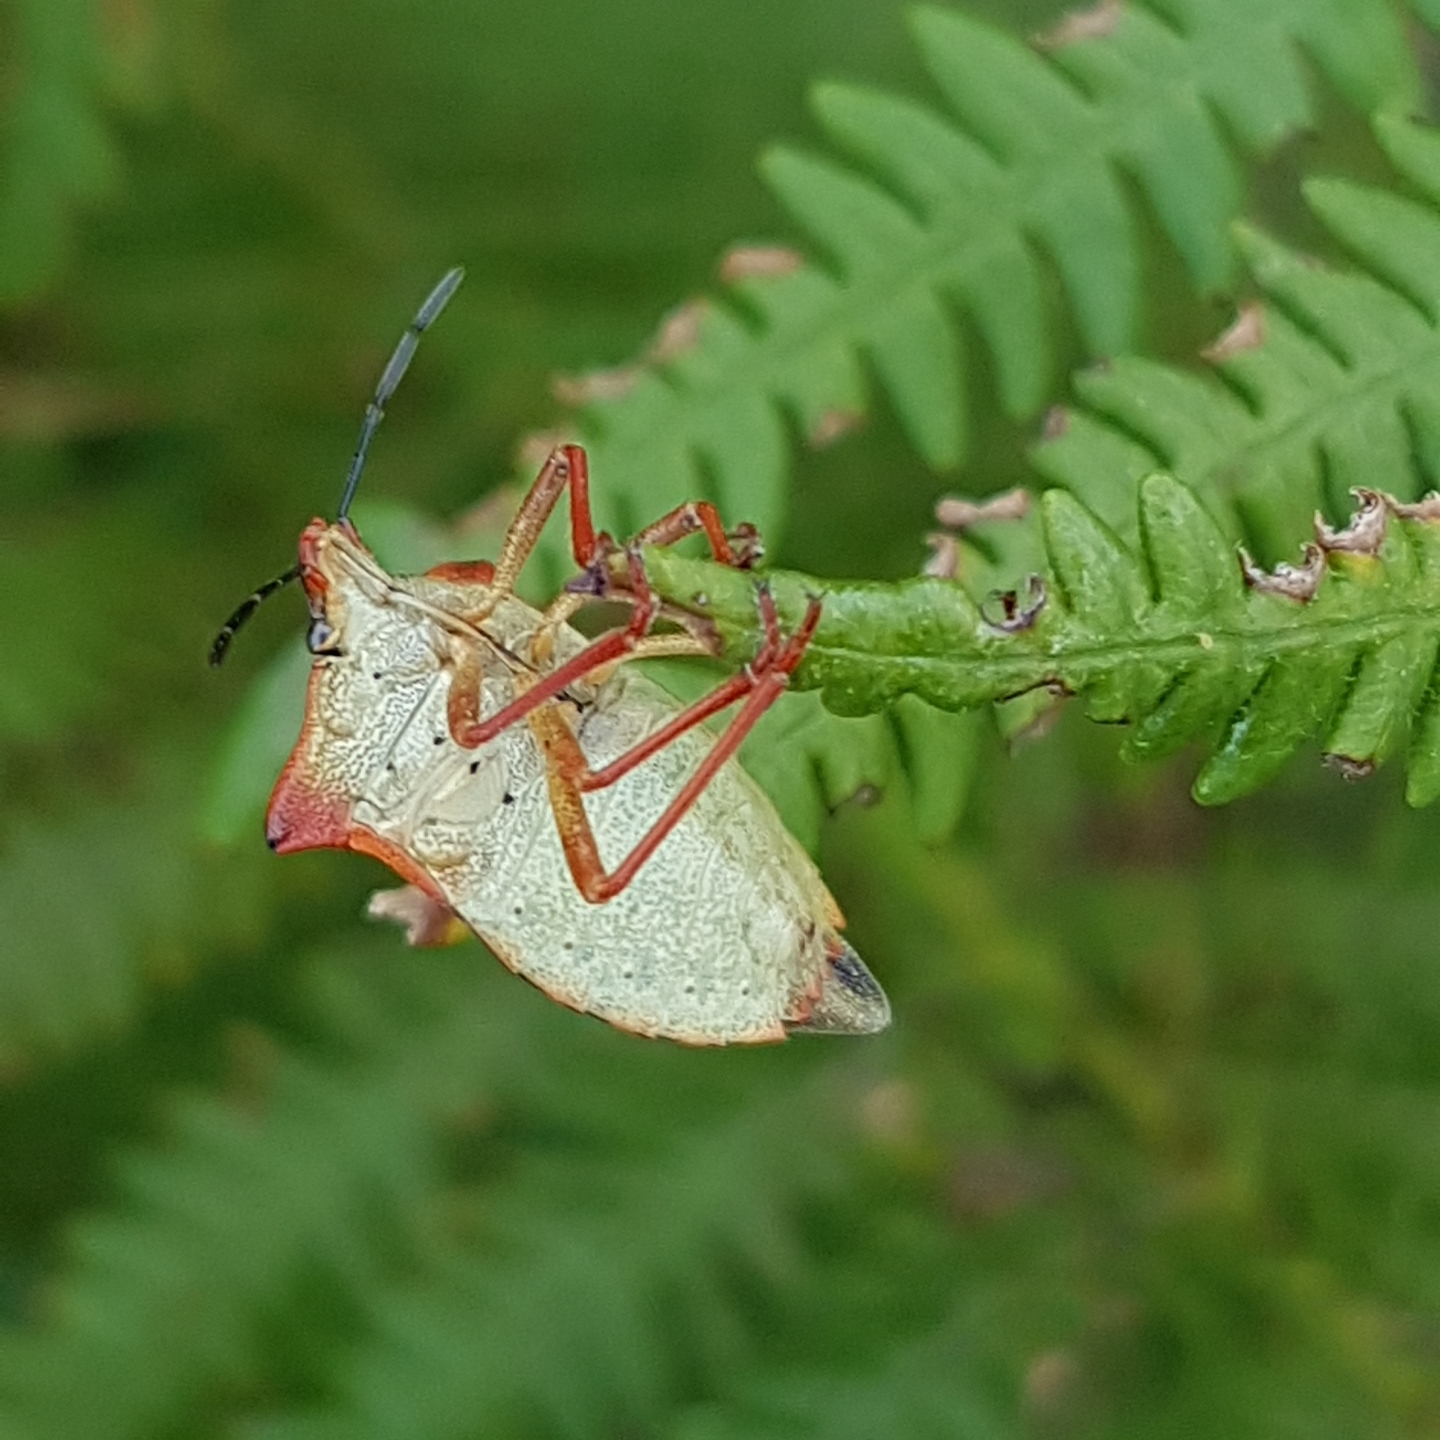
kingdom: Animalia
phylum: Arthropoda
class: Insecta
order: Hemiptera
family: Pentatomidae
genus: Carpocoris
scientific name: Carpocoris mediterraneus
